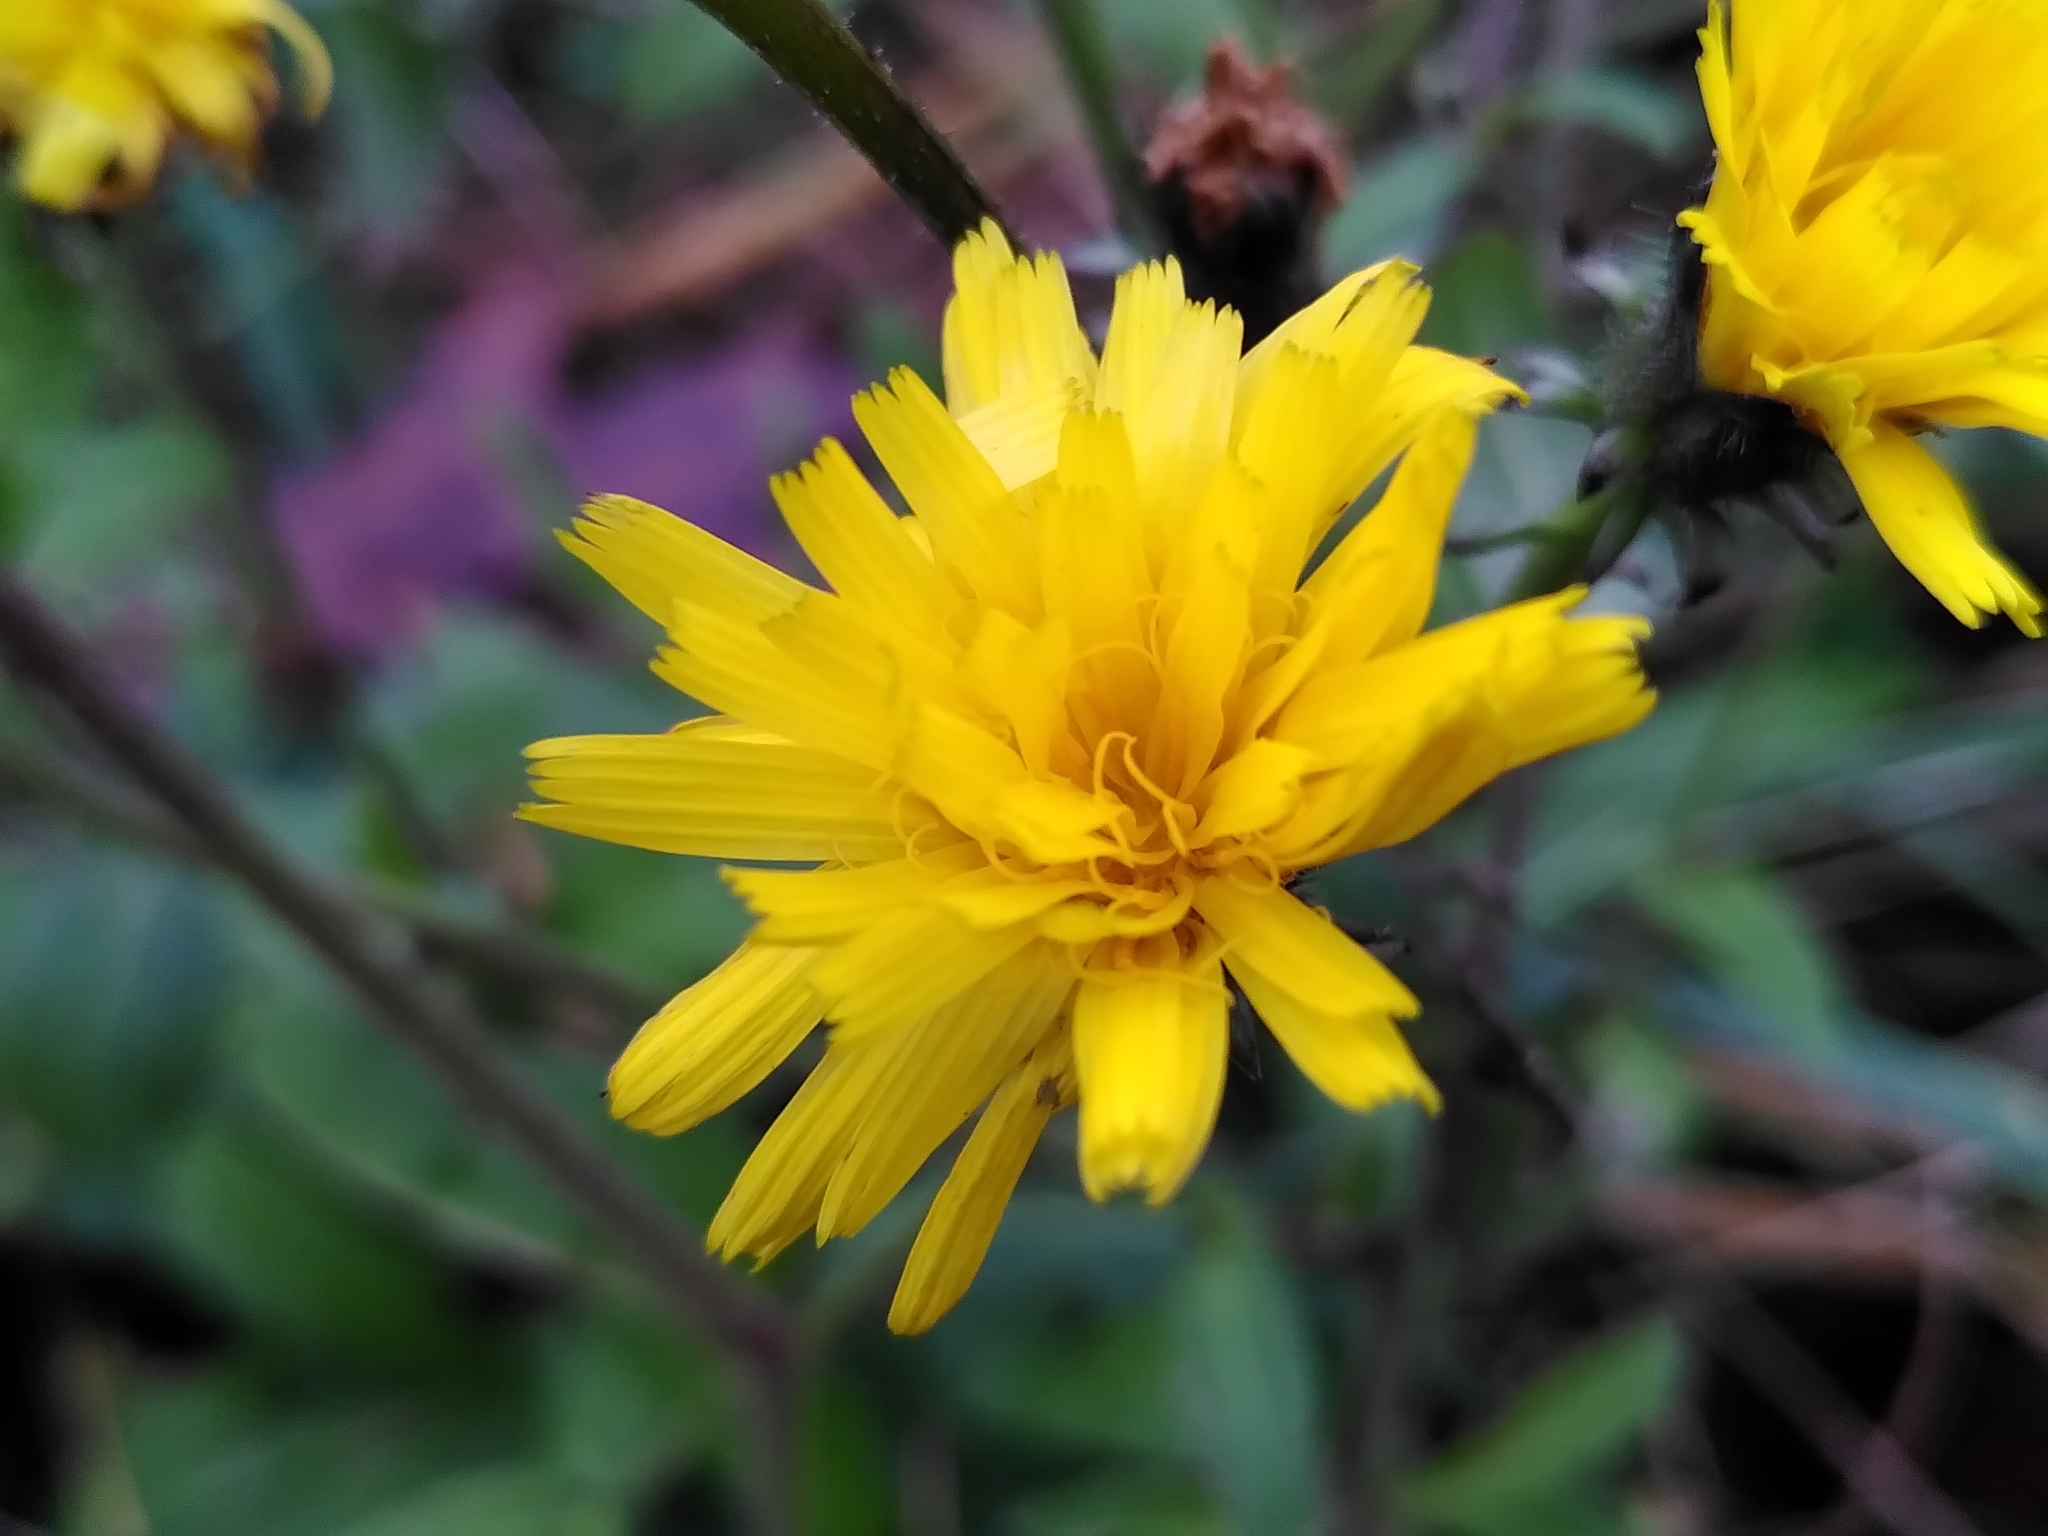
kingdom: Plantae
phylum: Tracheophyta
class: Magnoliopsida
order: Asterales
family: Asteraceae
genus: Picris
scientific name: Picris hieracioides
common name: Hawkweed oxtongue
